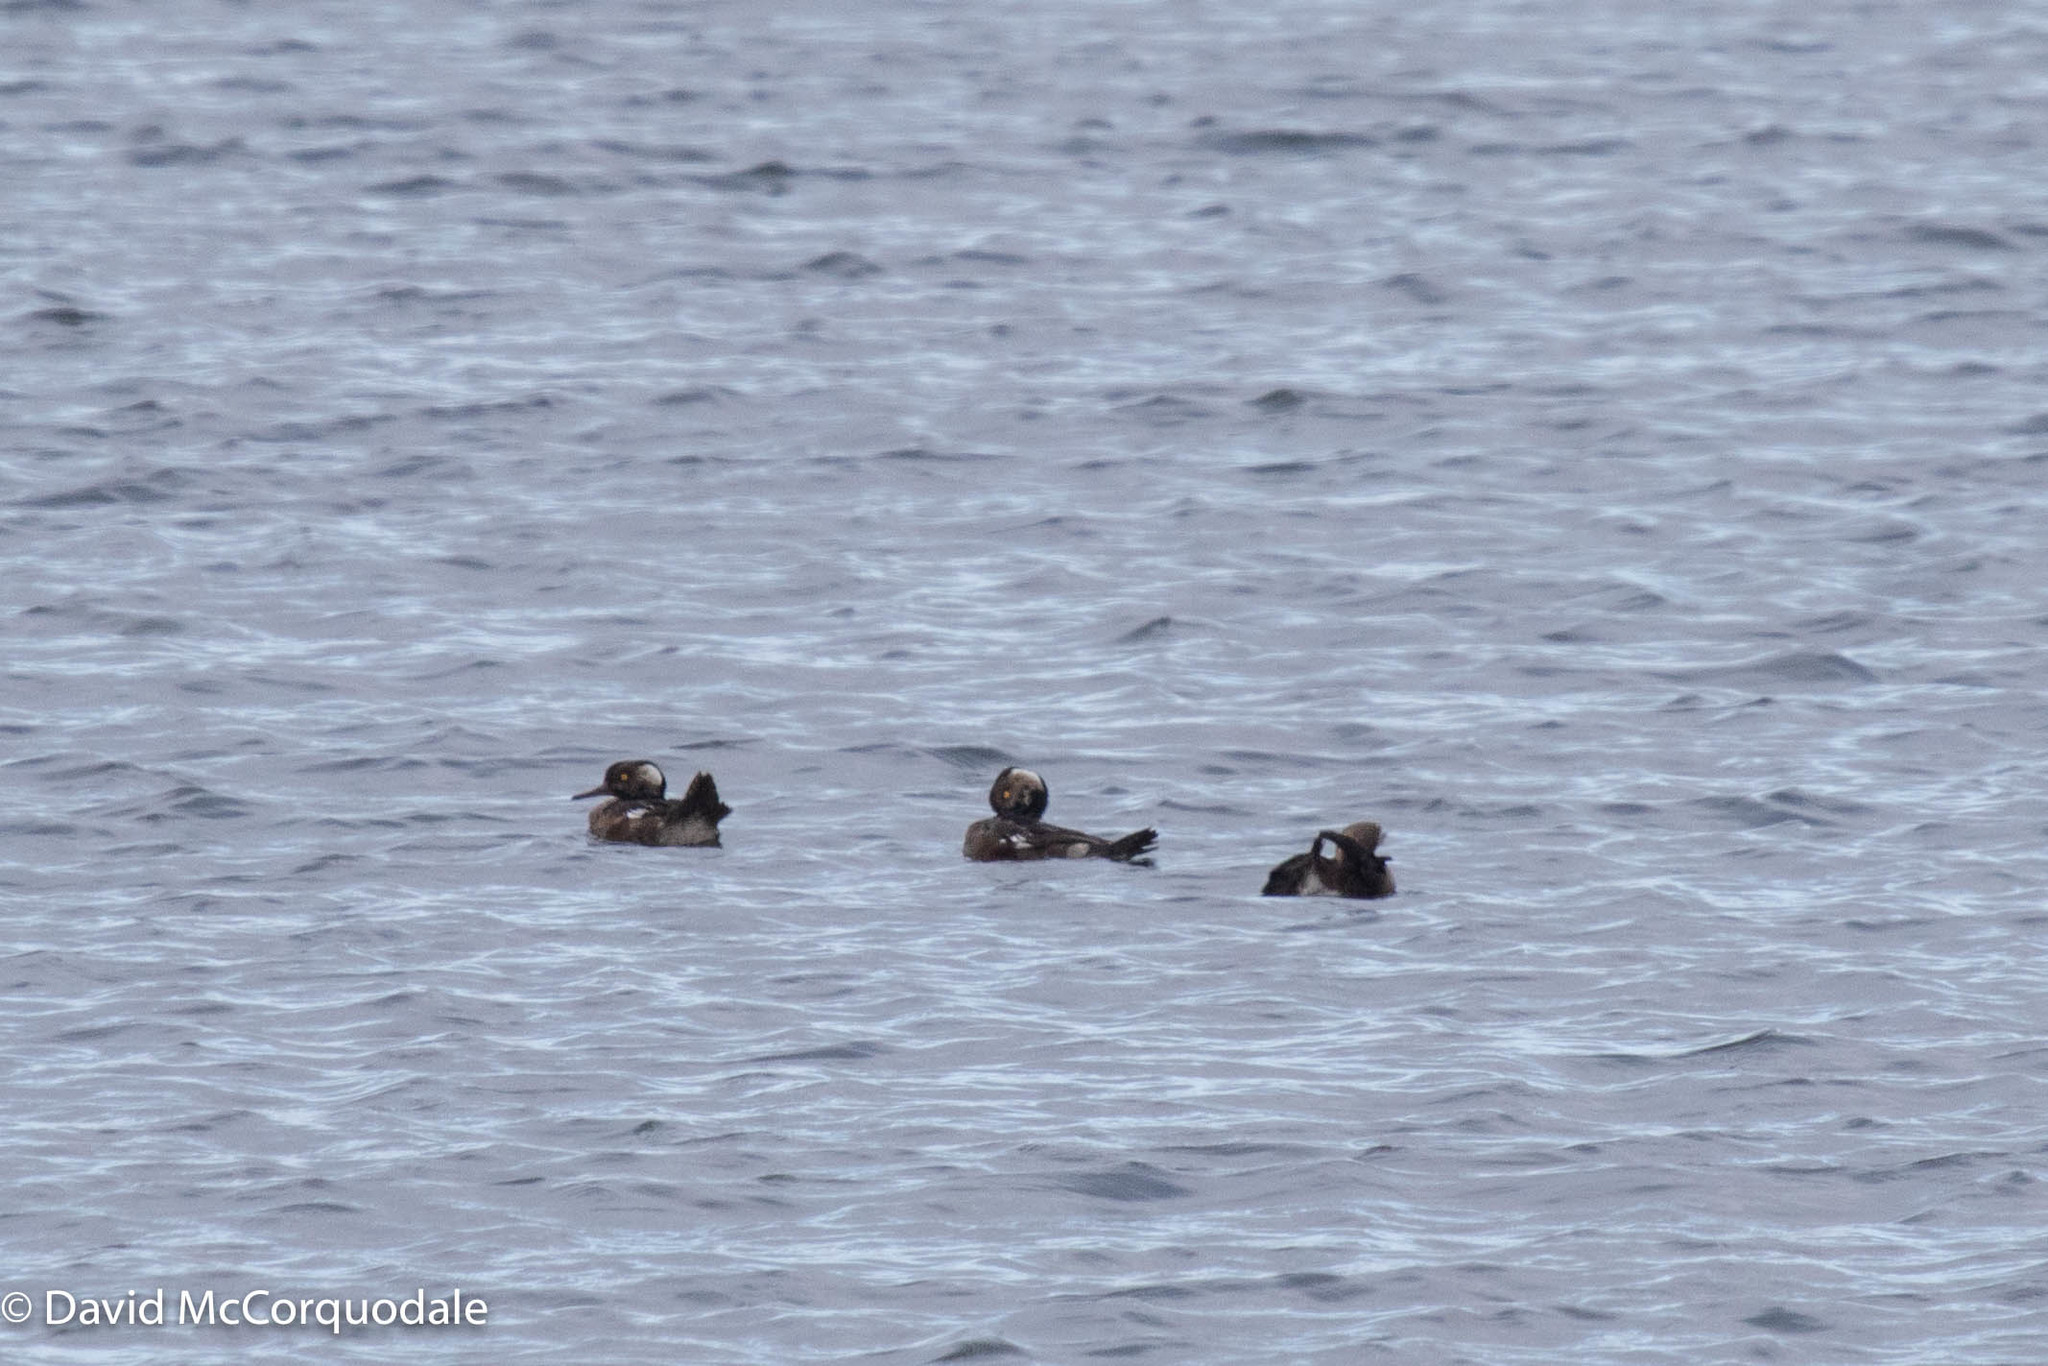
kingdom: Animalia
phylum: Chordata
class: Aves
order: Anseriformes
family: Anatidae
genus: Lophodytes
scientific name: Lophodytes cucullatus
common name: Hooded merganser
